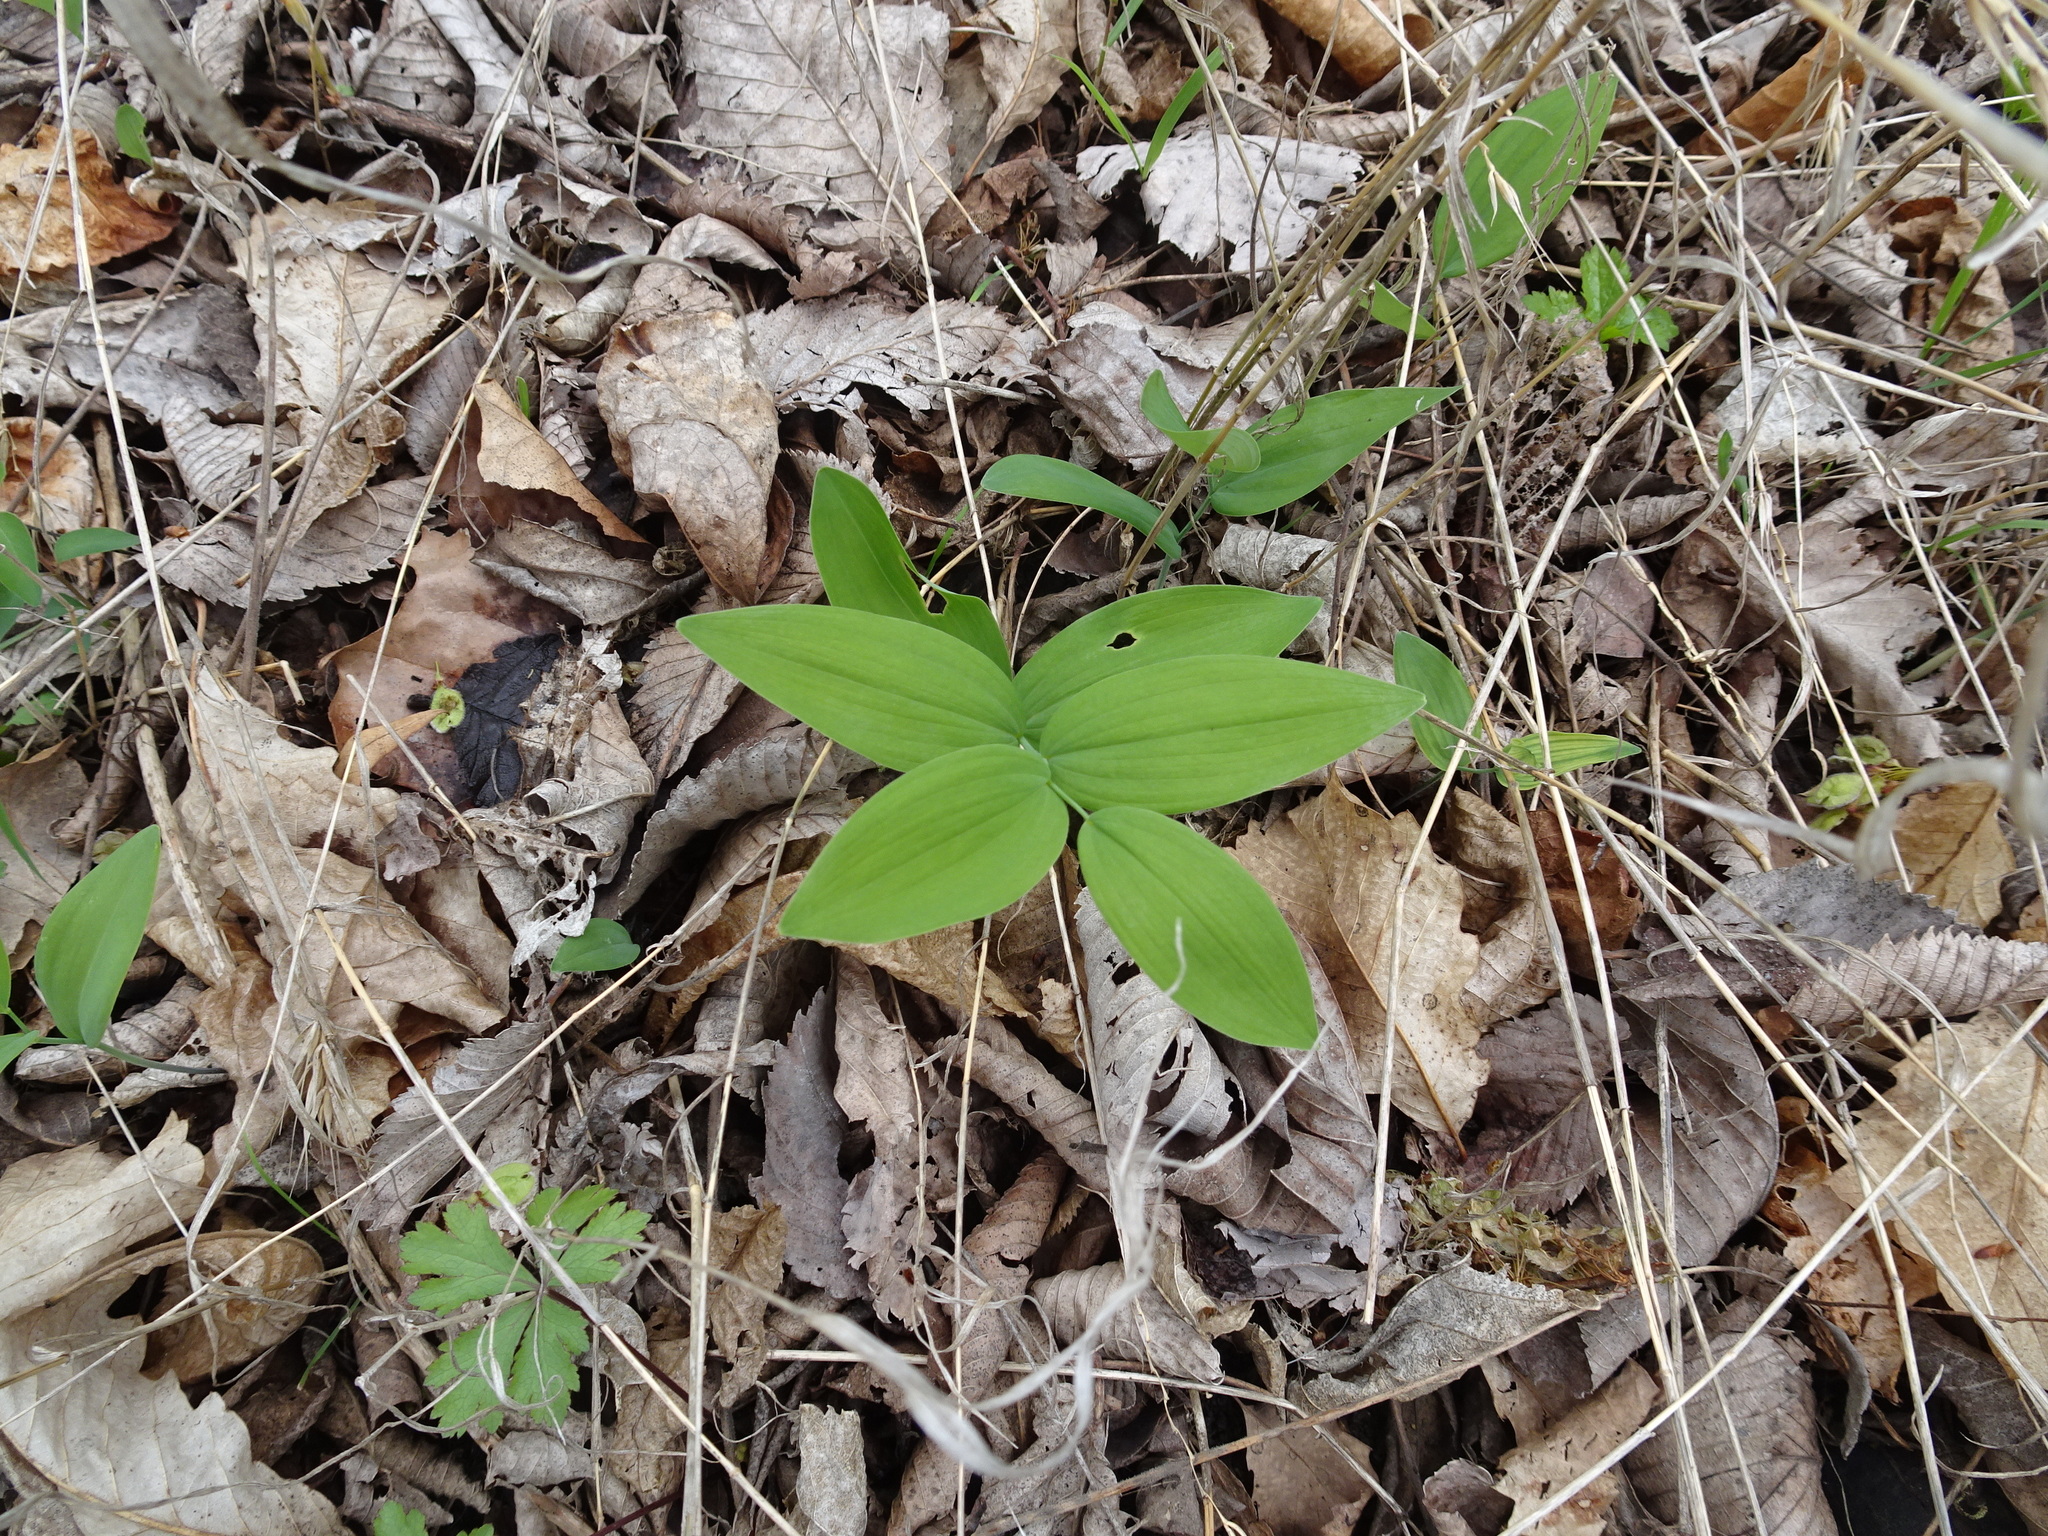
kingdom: Plantae
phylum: Tracheophyta
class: Liliopsida
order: Asparagales
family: Asparagaceae
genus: Polygonatum
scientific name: Polygonatum biflorum
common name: American solomon's-seal
